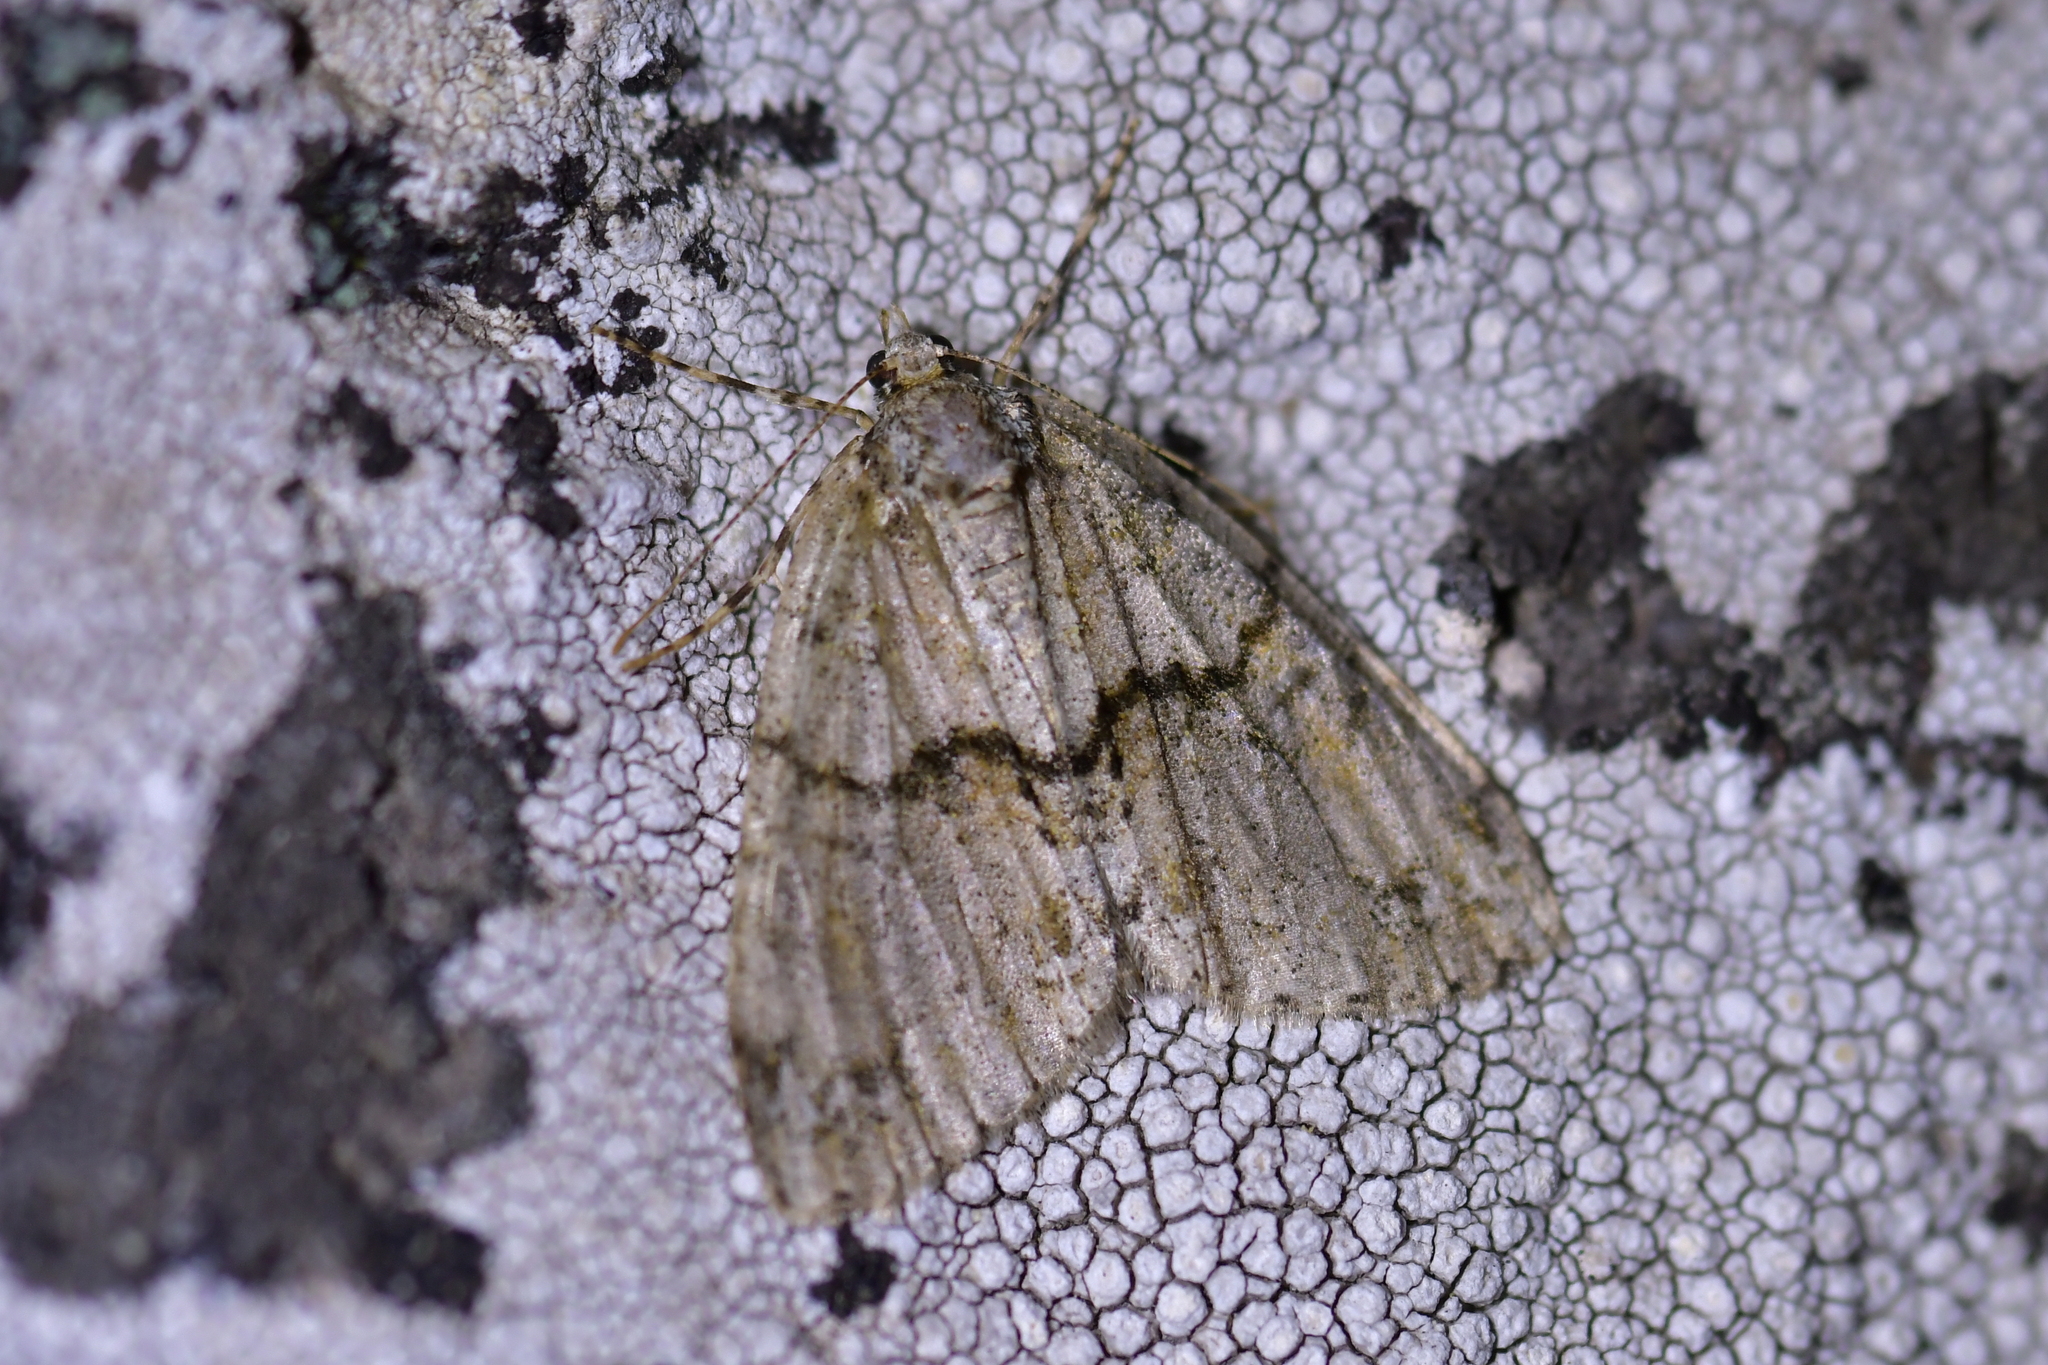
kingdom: Animalia
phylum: Arthropoda
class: Insecta
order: Lepidoptera
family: Geometridae
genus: Pseudocoremia
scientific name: Pseudocoremia suavis
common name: Common forest looper
